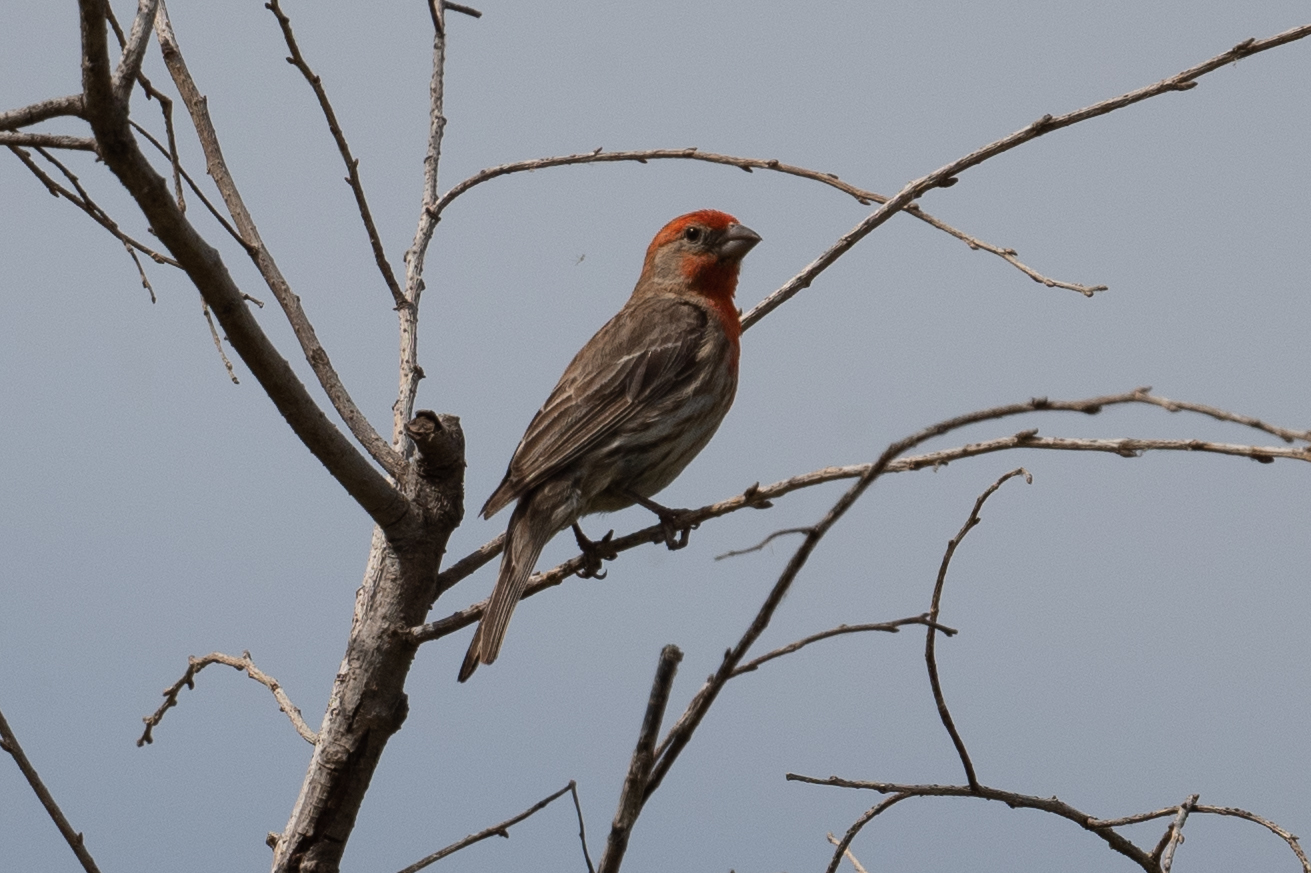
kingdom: Animalia
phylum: Chordata
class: Aves
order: Passeriformes
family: Fringillidae
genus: Haemorhous
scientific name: Haemorhous mexicanus
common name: House finch
